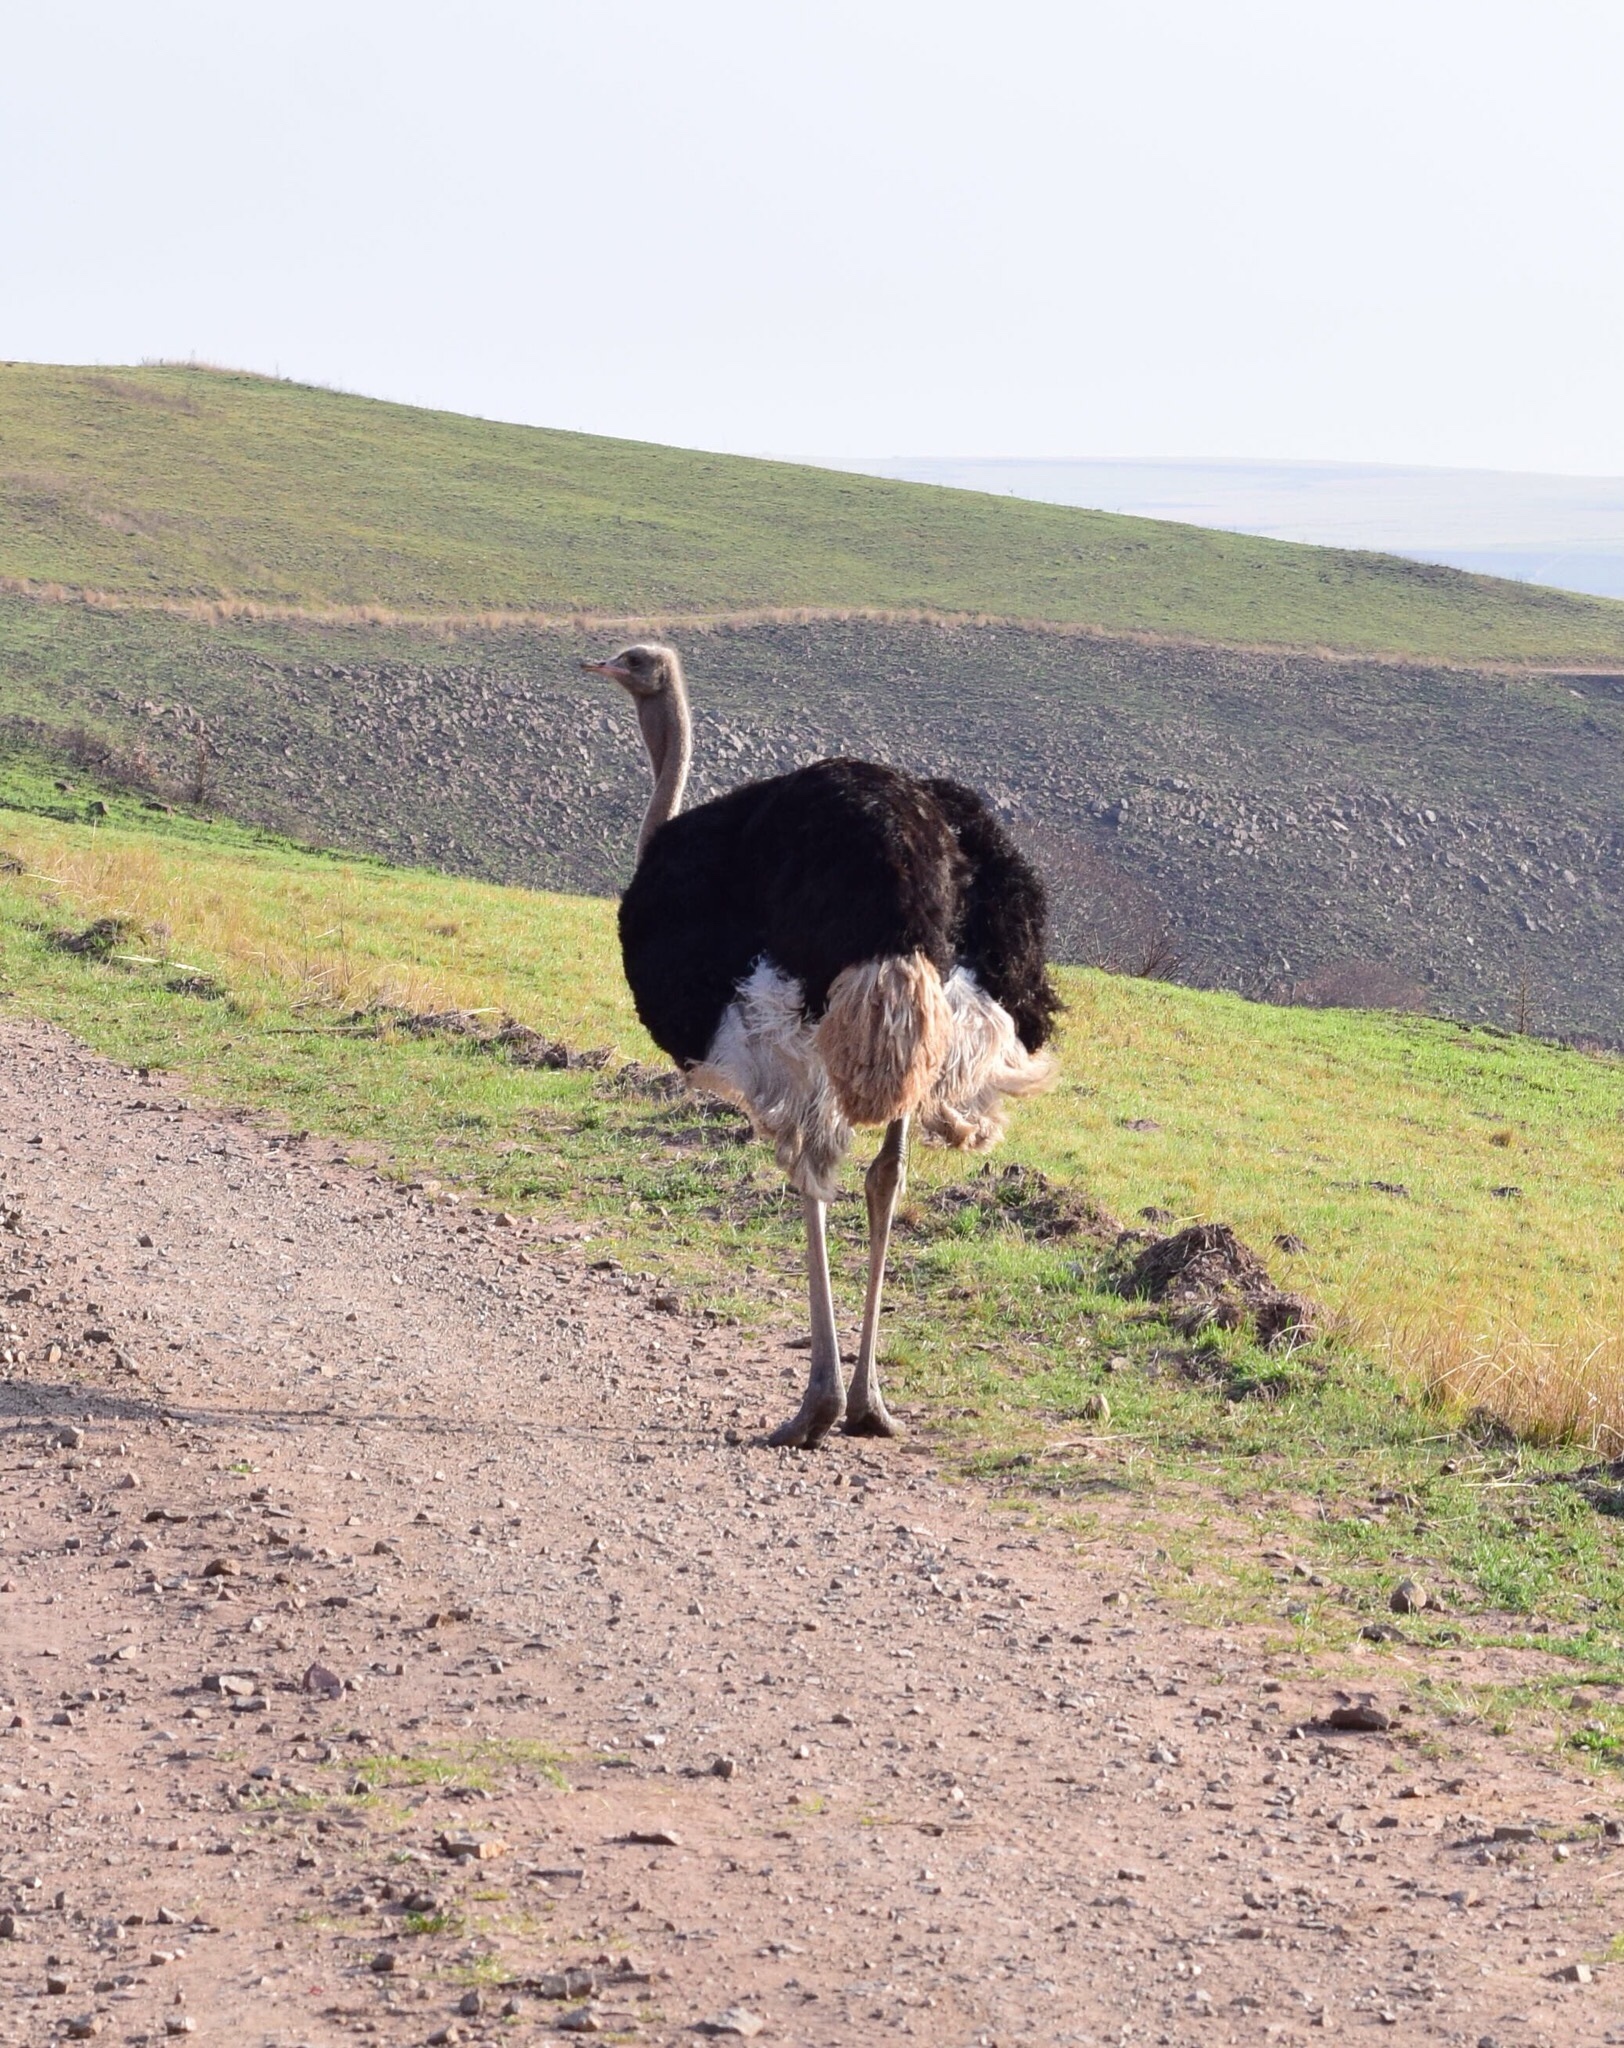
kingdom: Animalia
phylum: Chordata
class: Aves
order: Struthioniformes
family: Struthionidae
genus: Struthio
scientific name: Struthio camelus
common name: Common ostrich
